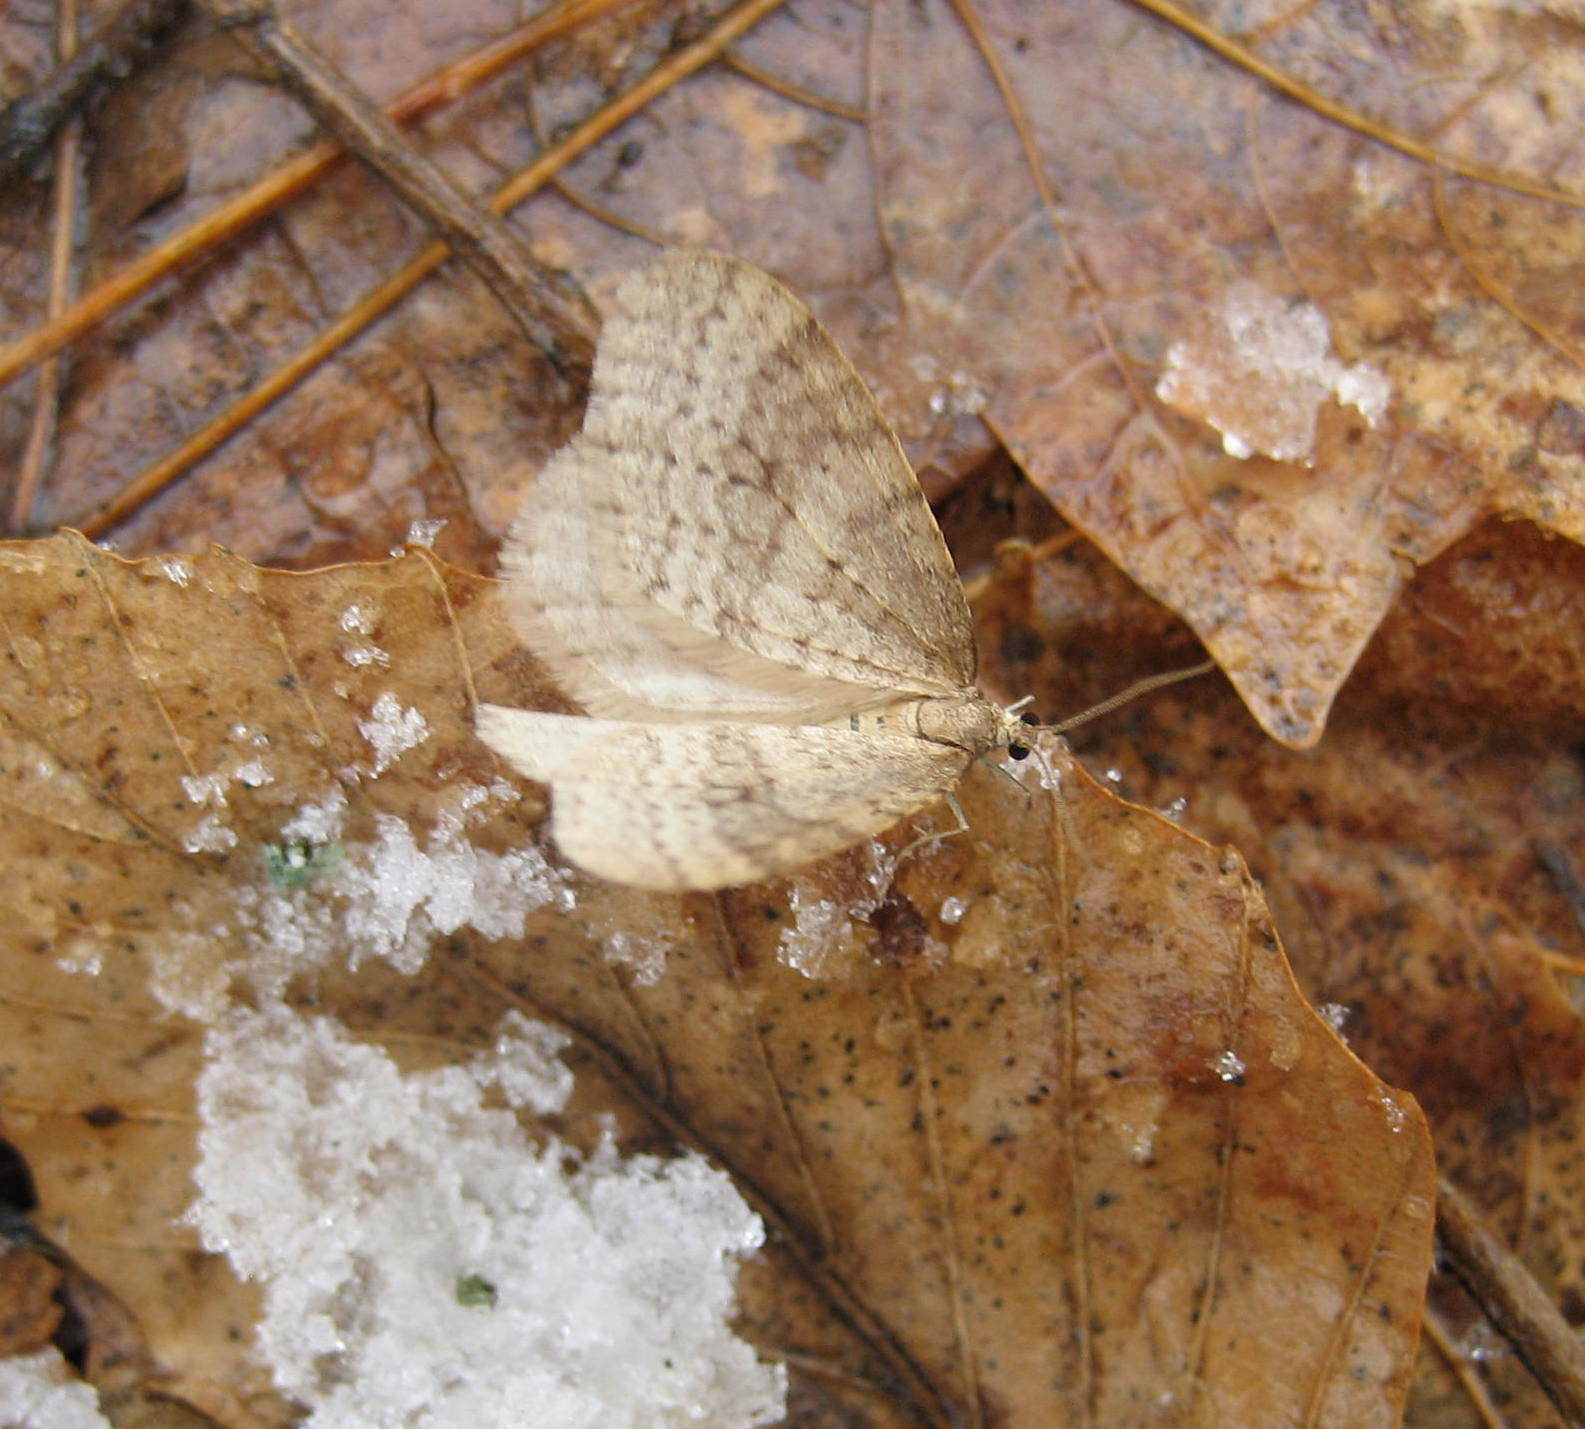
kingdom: Animalia
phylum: Arthropoda
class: Insecta
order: Lepidoptera
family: Geometridae
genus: Operophtera
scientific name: Operophtera bruceata
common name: Bruce spanworm
